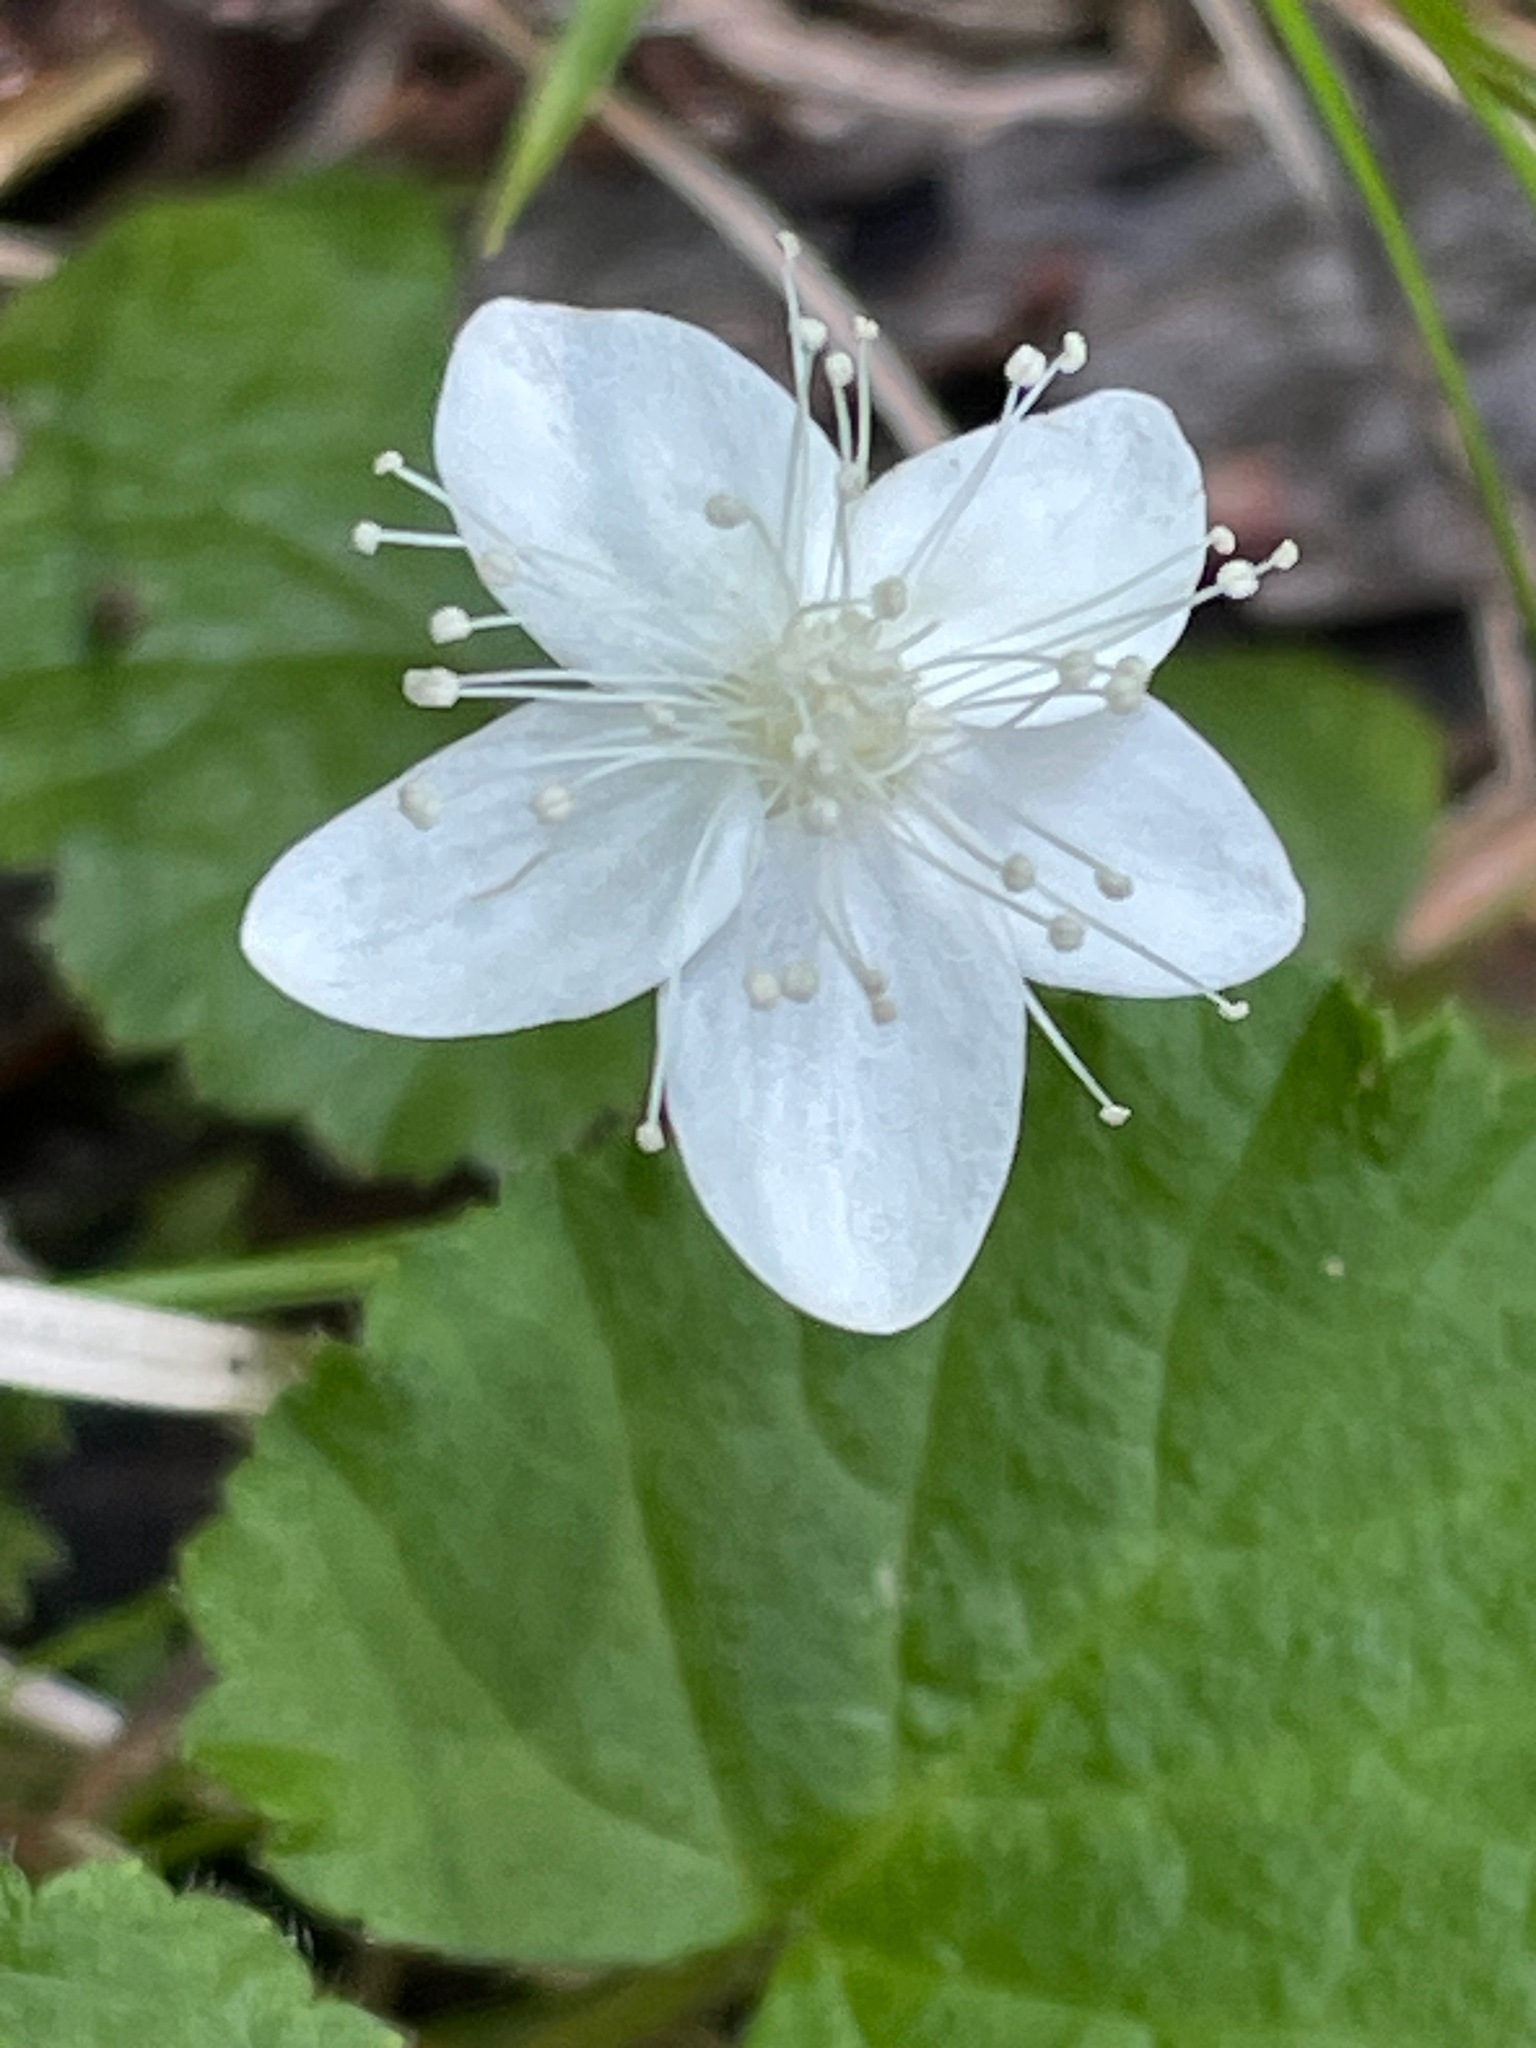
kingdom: Plantae
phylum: Tracheophyta
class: Magnoliopsida
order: Rosales
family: Rosaceae
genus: Dalibarda
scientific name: Dalibarda repens
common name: Dewdrop
